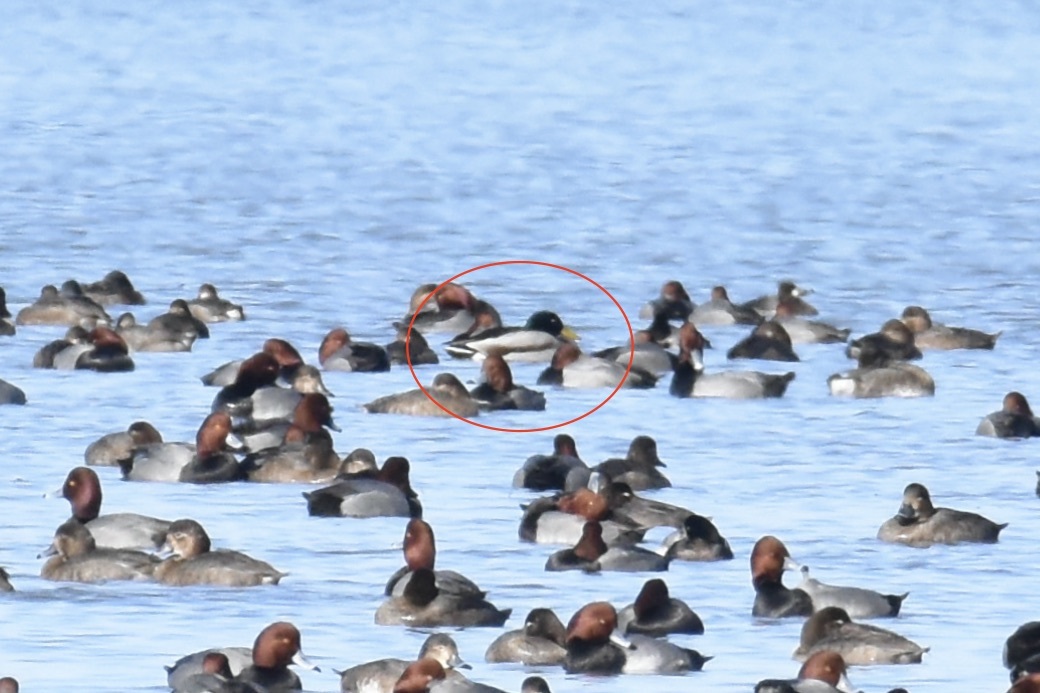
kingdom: Animalia
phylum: Chordata
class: Aves
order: Anseriformes
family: Anatidae
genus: Anas
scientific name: Anas platyrhynchos
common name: Mallard
